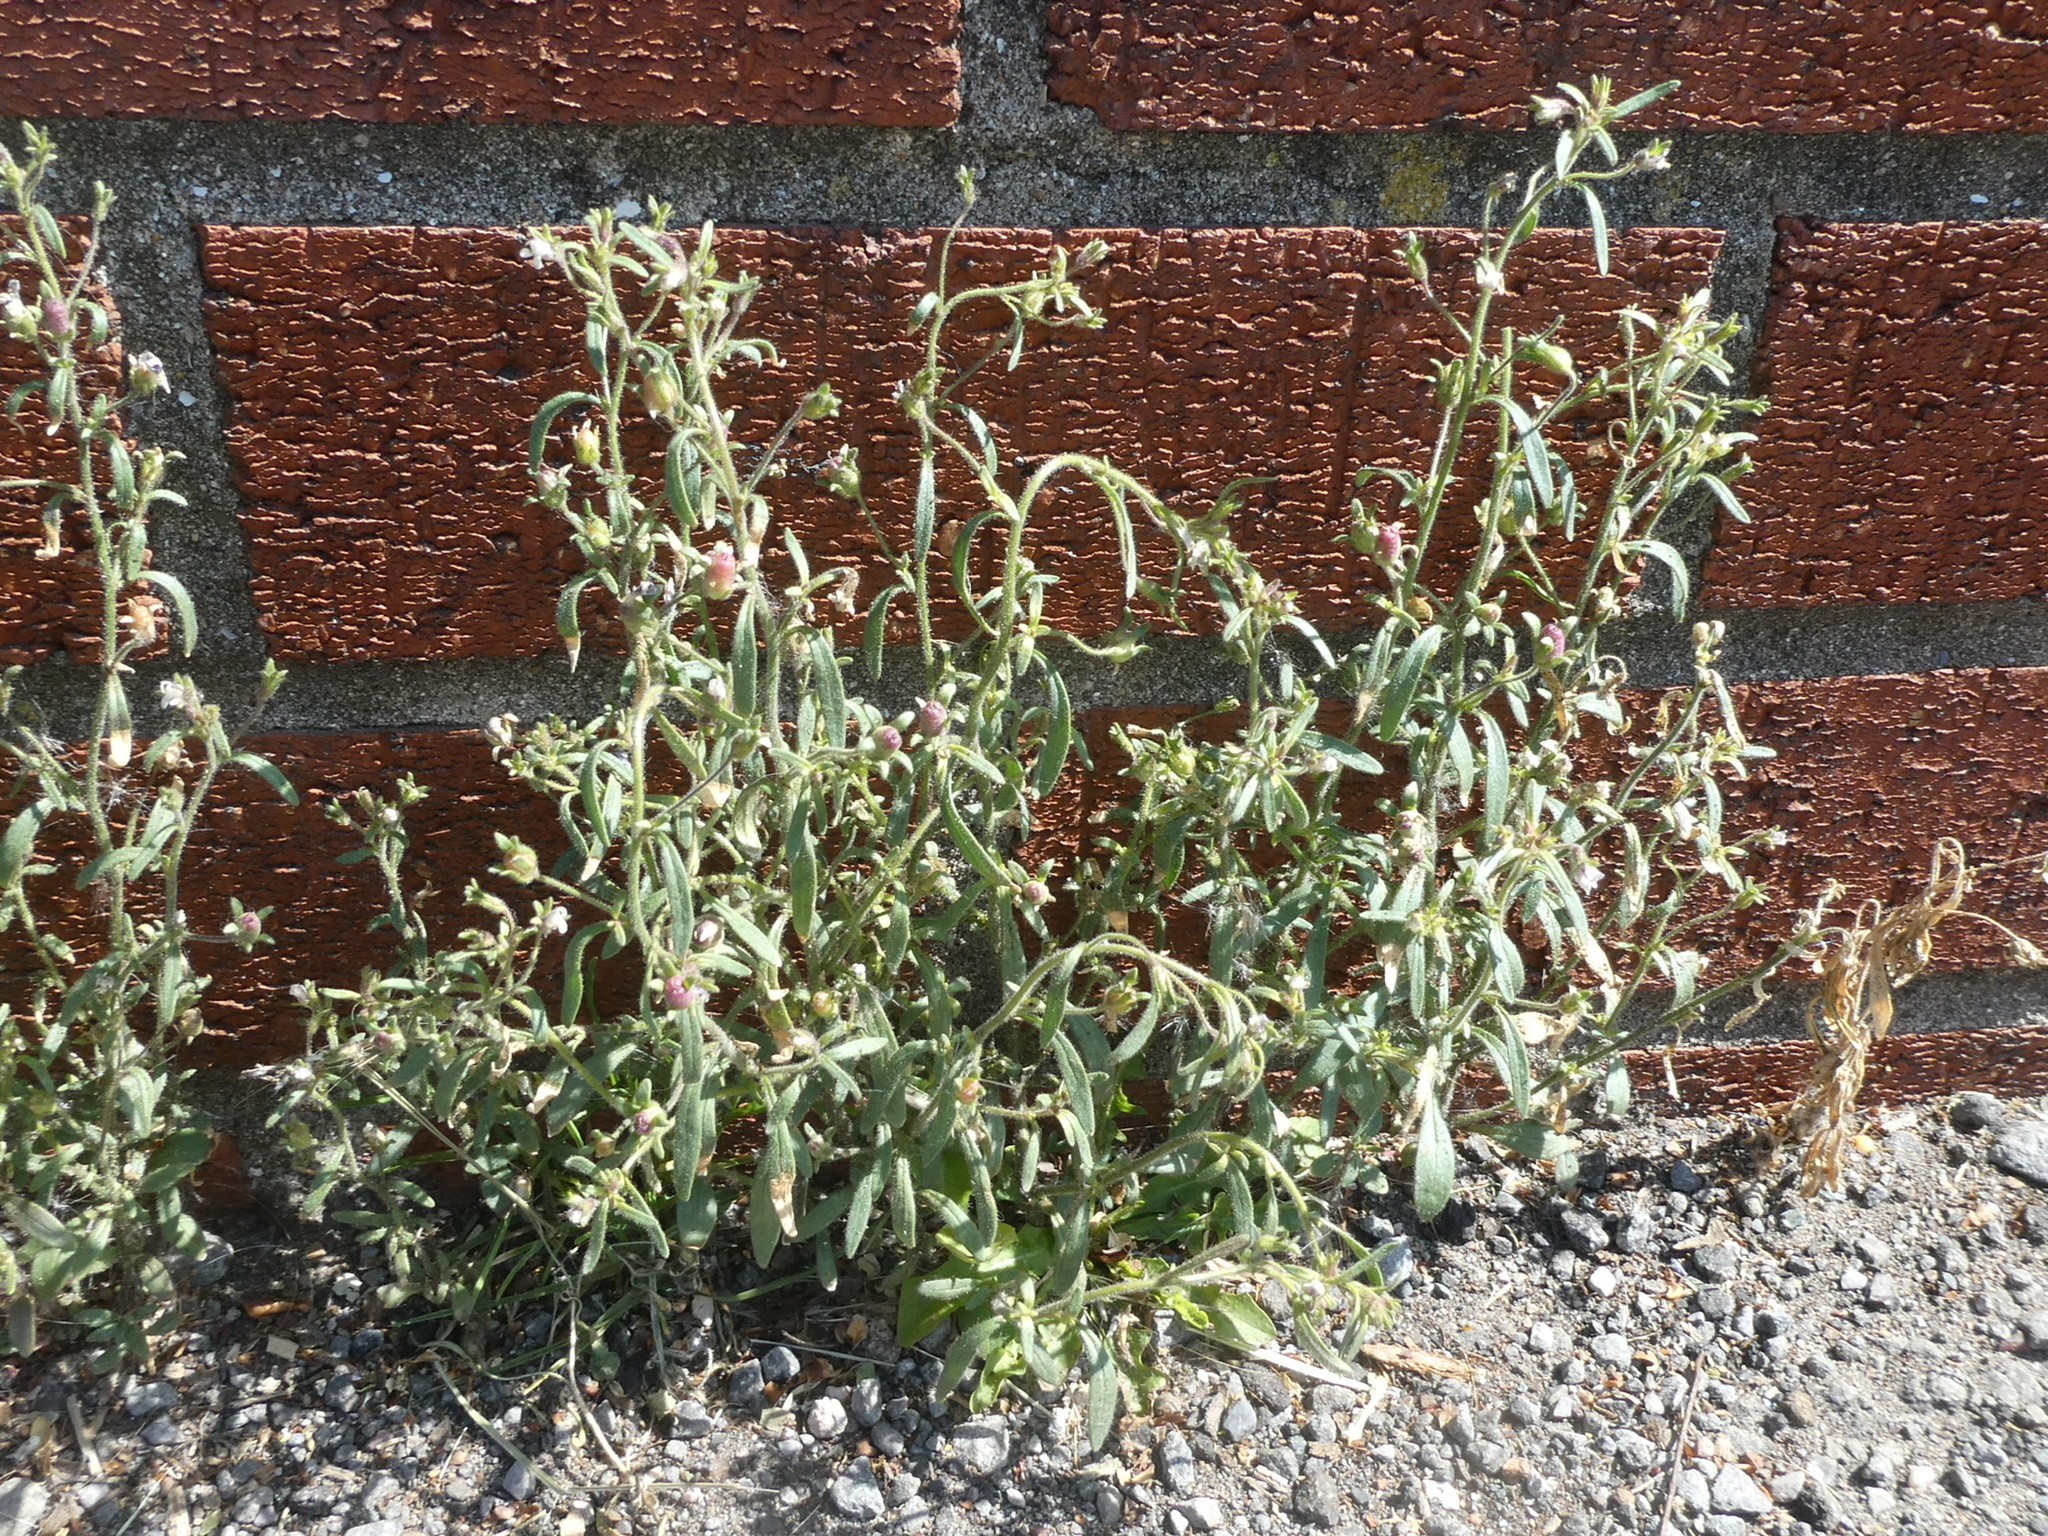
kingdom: Plantae
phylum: Tracheophyta
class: Magnoliopsida
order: Lamiales
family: Plantaginaceae
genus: Chaenorhinum
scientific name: Chaenorhinum minus
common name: Dwarf snapdragon
